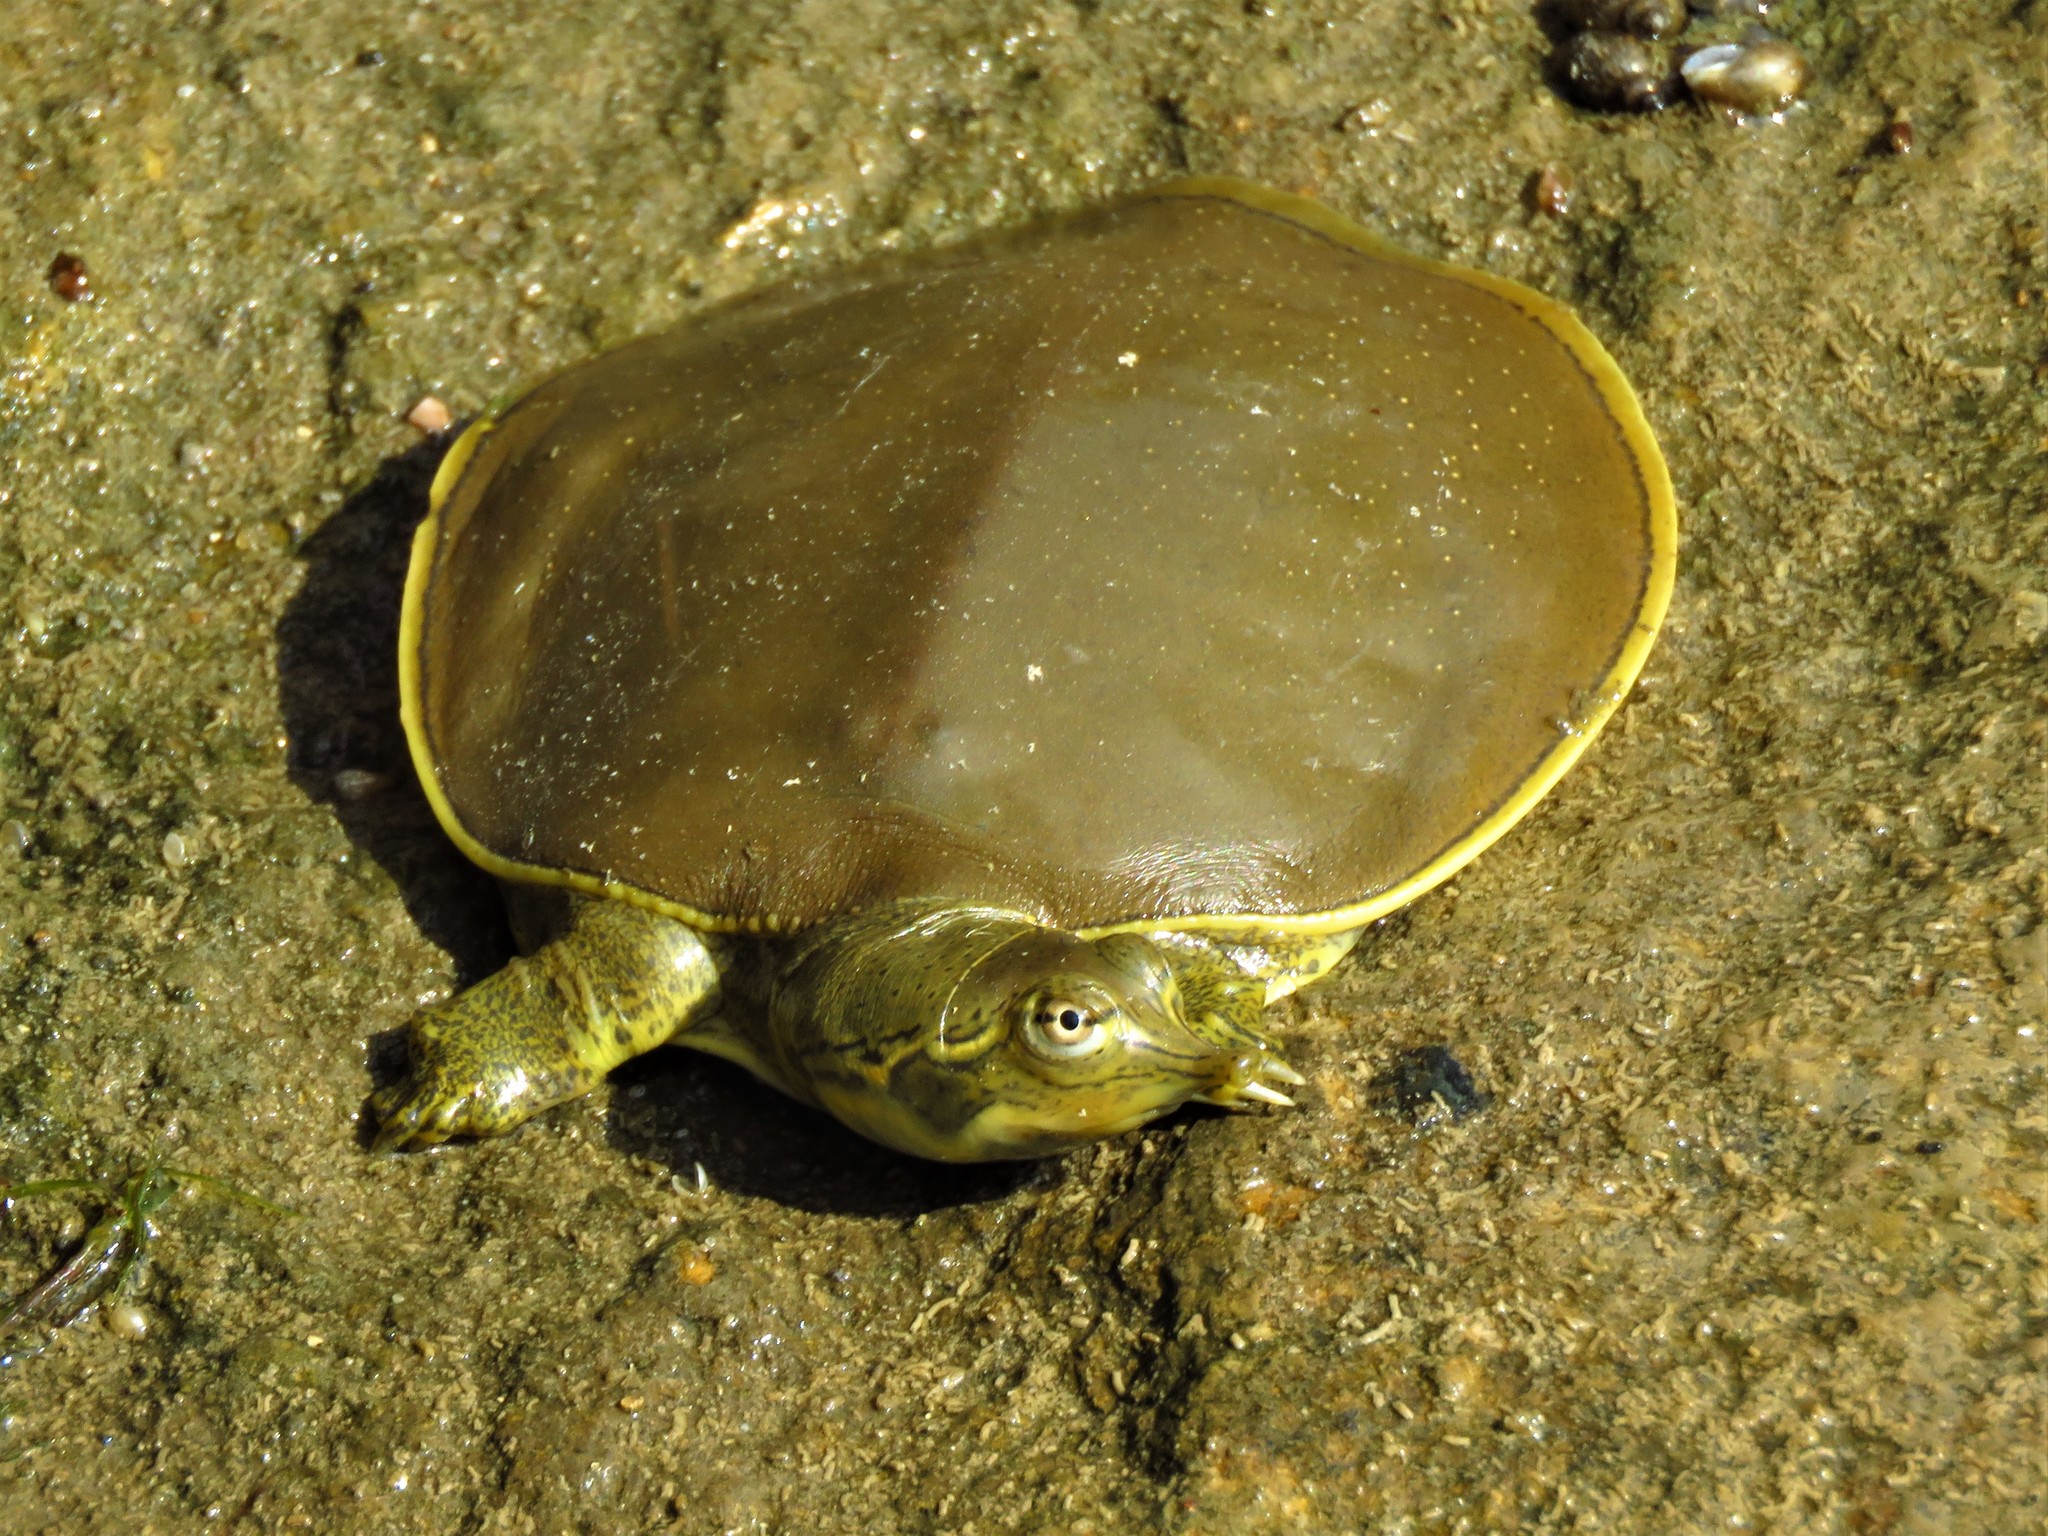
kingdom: Animalia
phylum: Chordata
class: Testudines
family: Trionychidae
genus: Apalone
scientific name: Apalone spinifera
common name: Spiny softshell turtle
